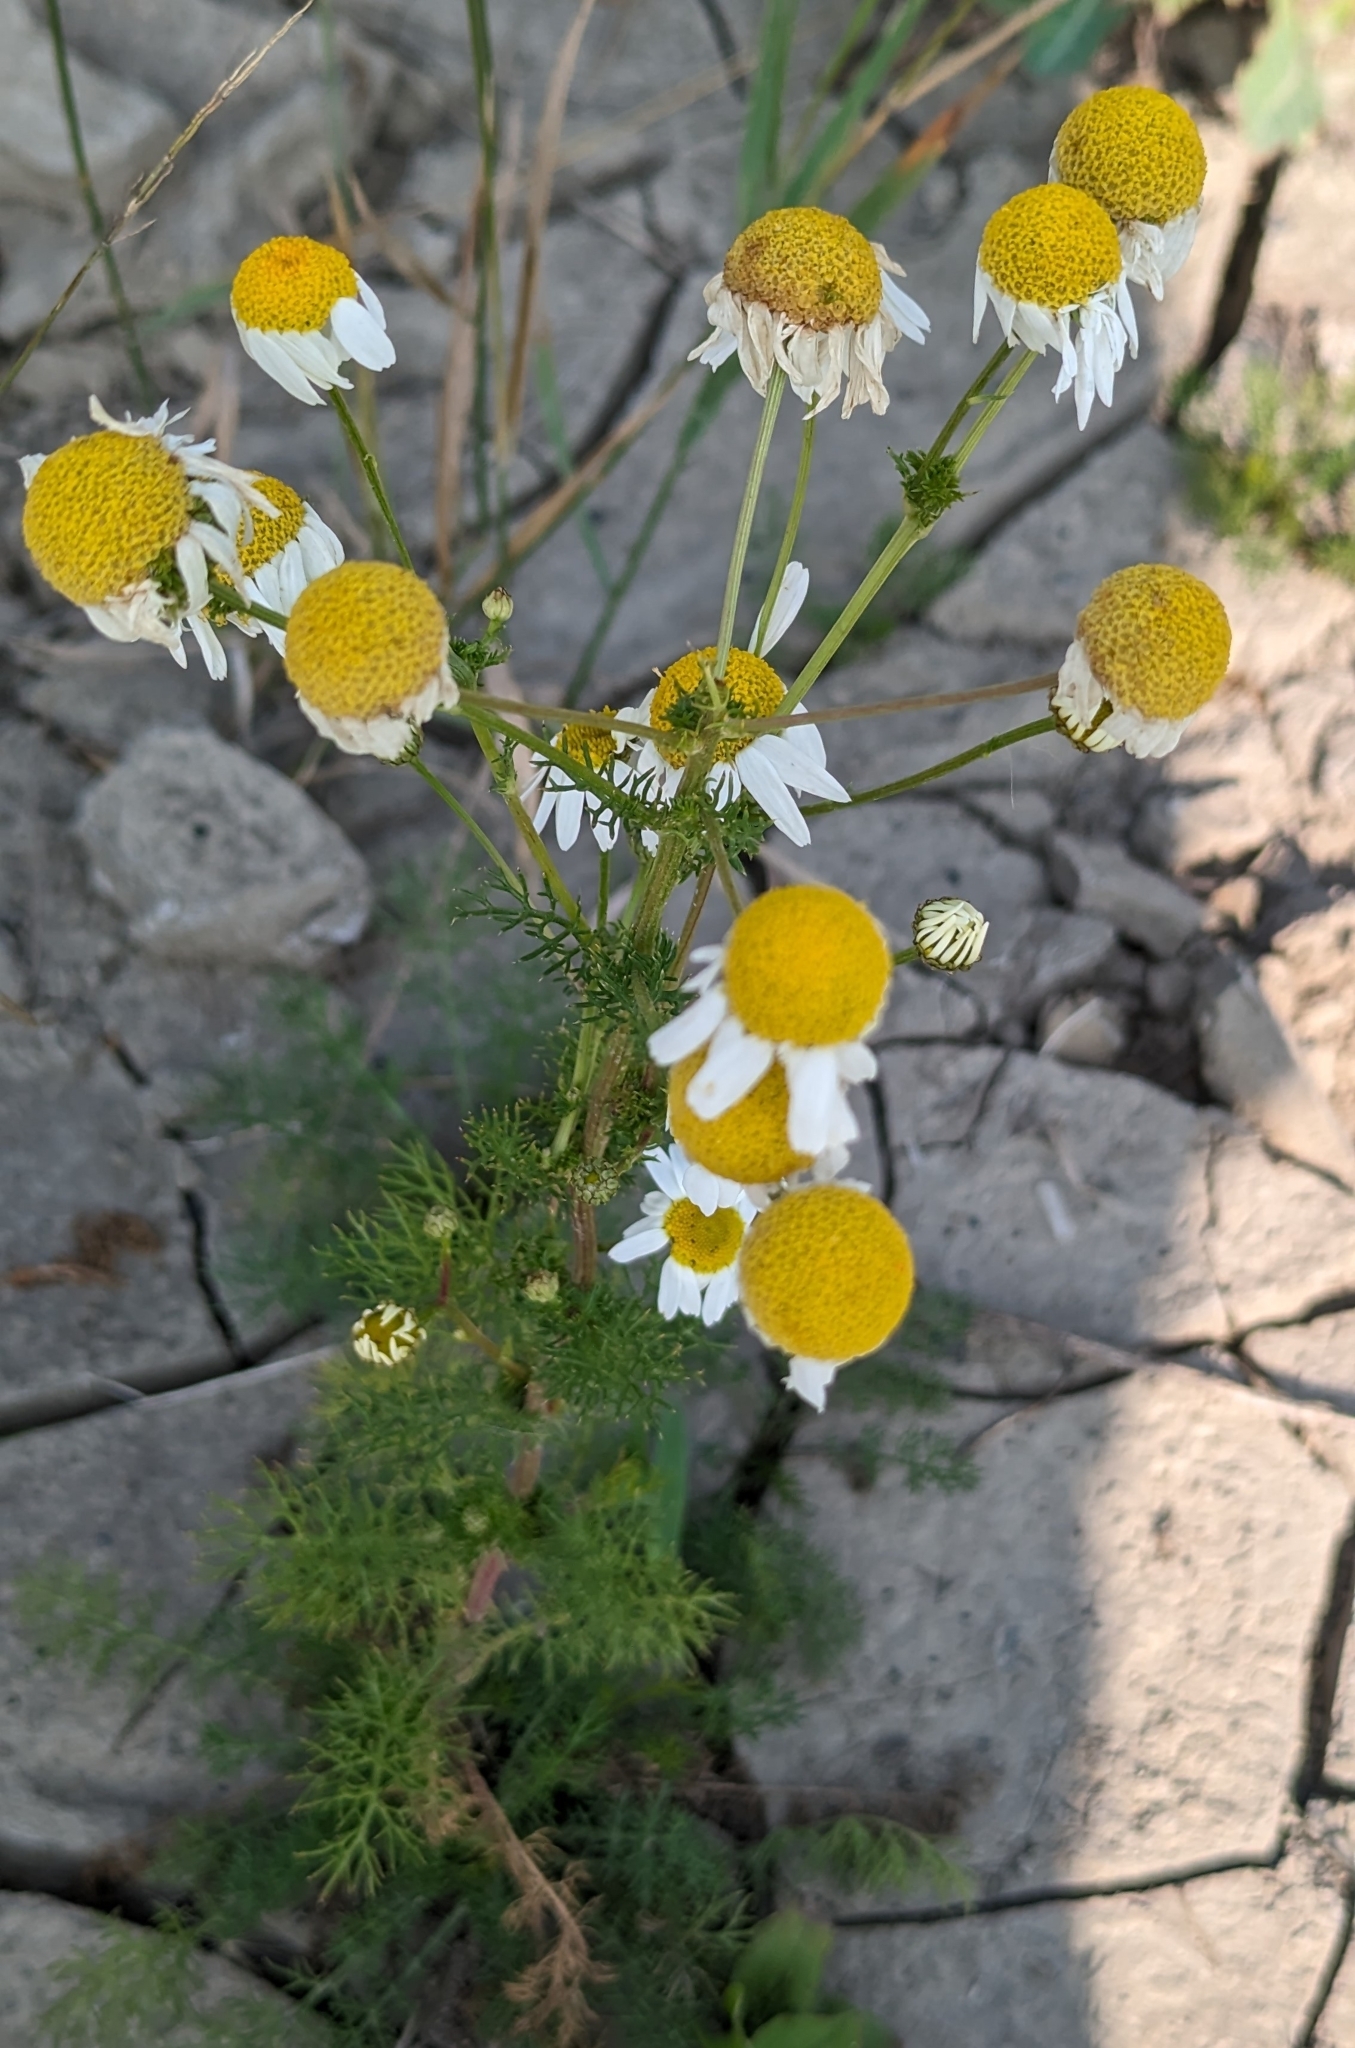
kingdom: Plantae
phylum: Tracheophyta
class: Magnoliopsida
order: Asterales
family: Asteraceae
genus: Tripleurospermum
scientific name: Tripleurospermum inodorum
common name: Scentless mayweed
